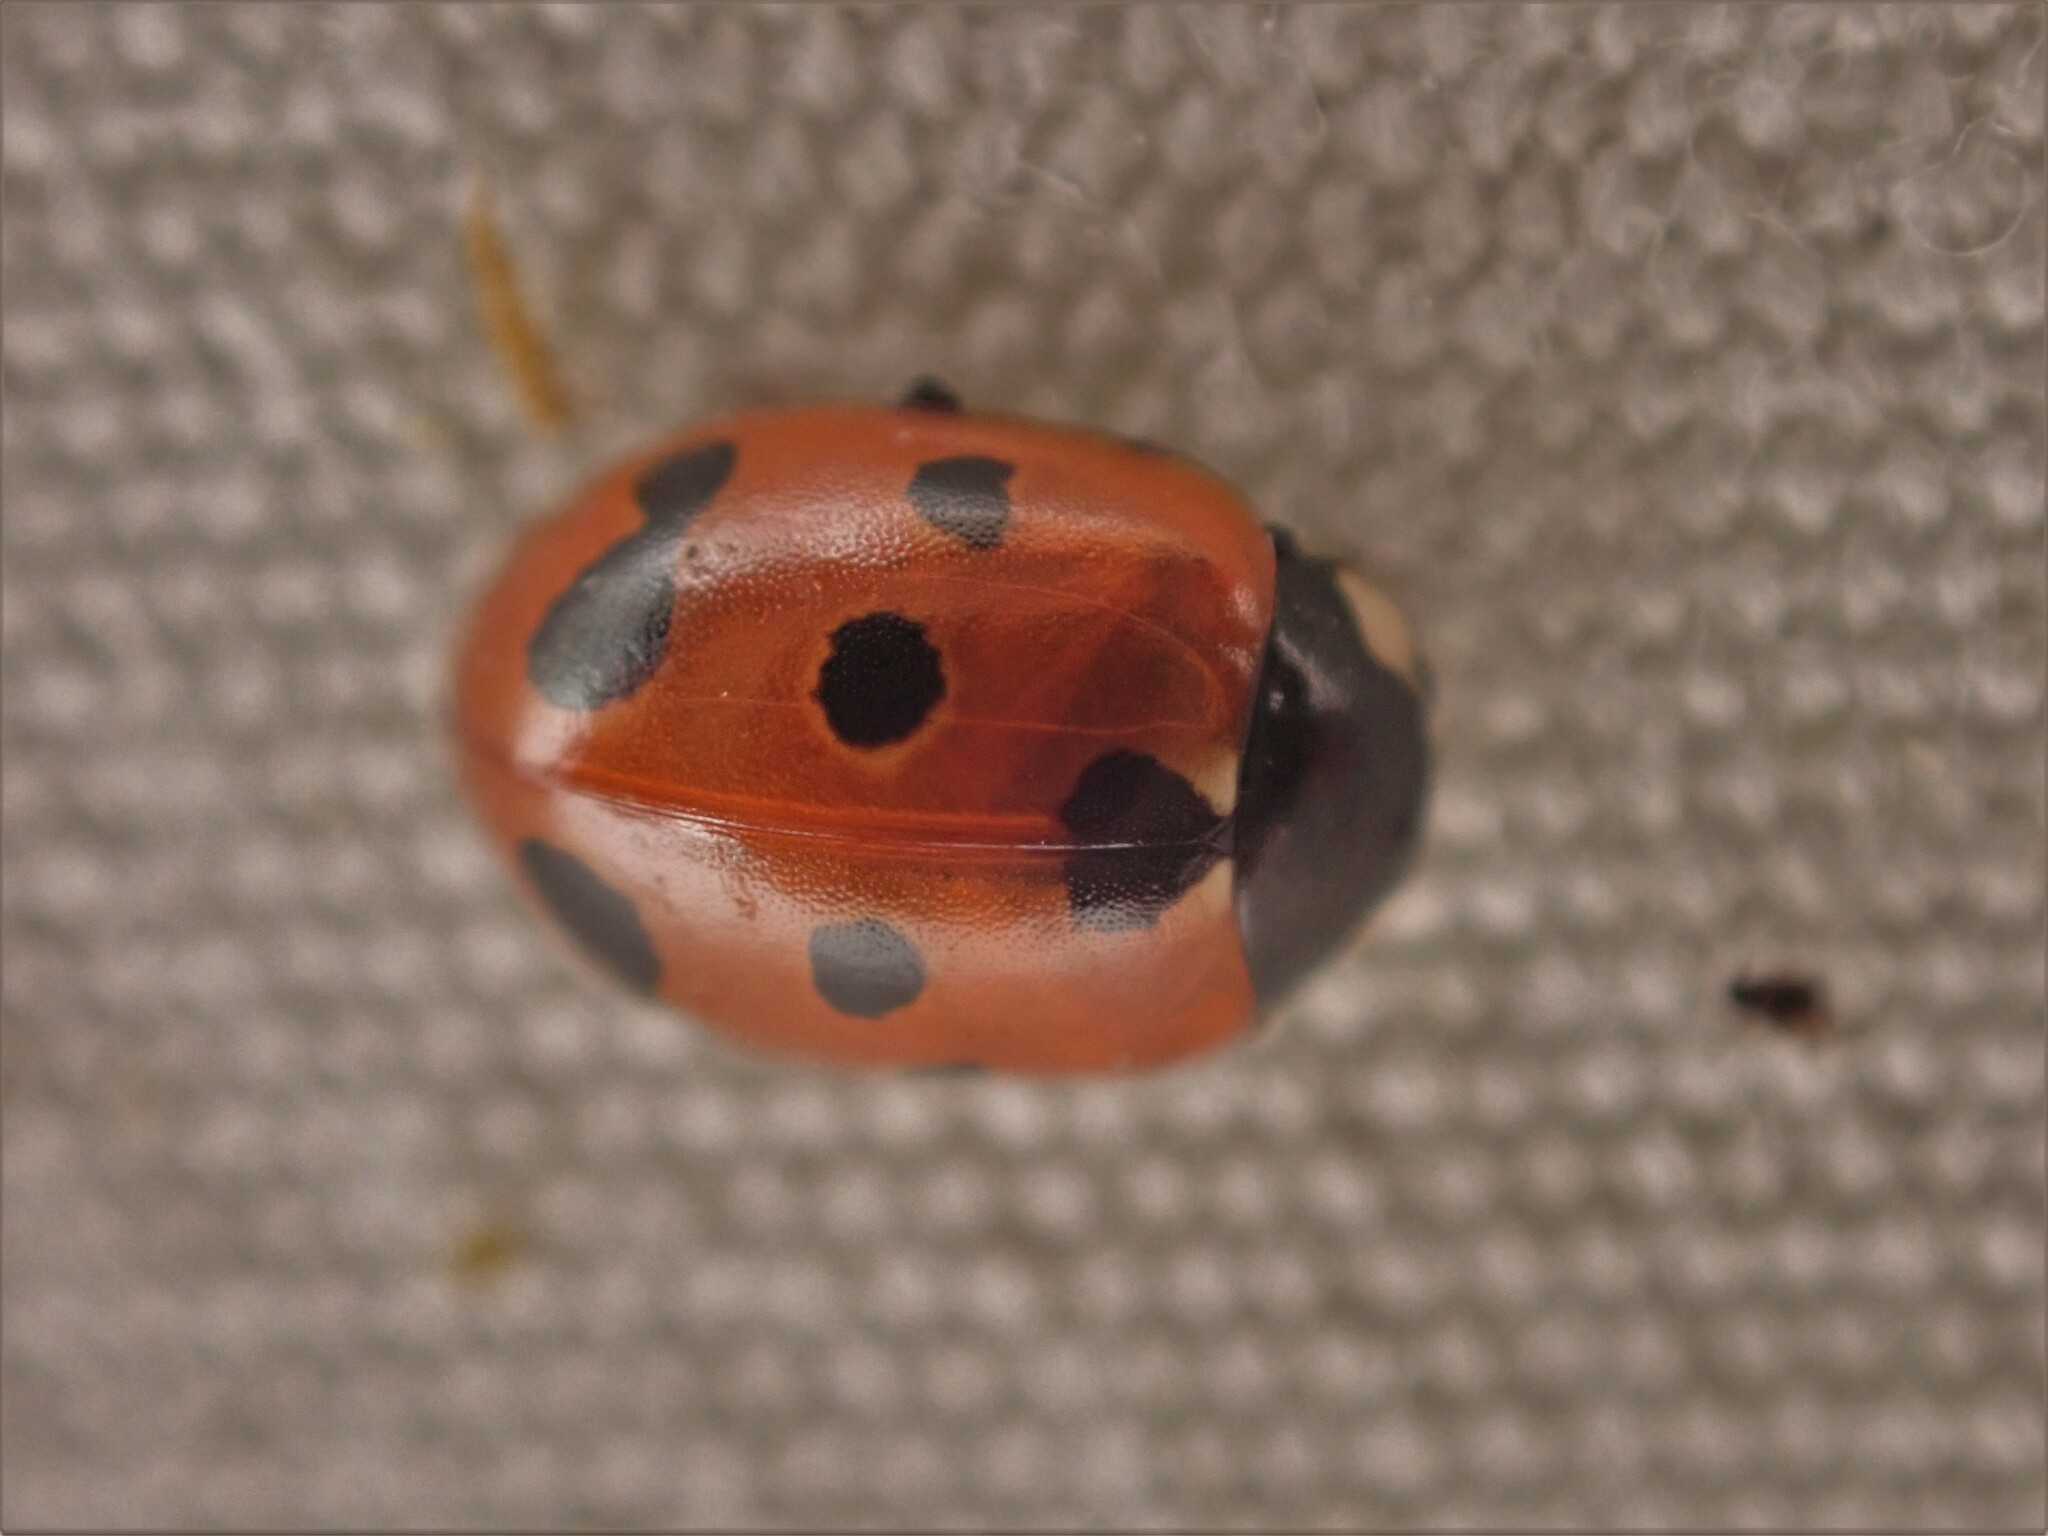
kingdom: Animalia
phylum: Arthropoda
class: Insecta
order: Coleoptera
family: Coccinellidae
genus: Coccinella
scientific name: Coccinella undecimpunctata
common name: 11-spot ladybird
